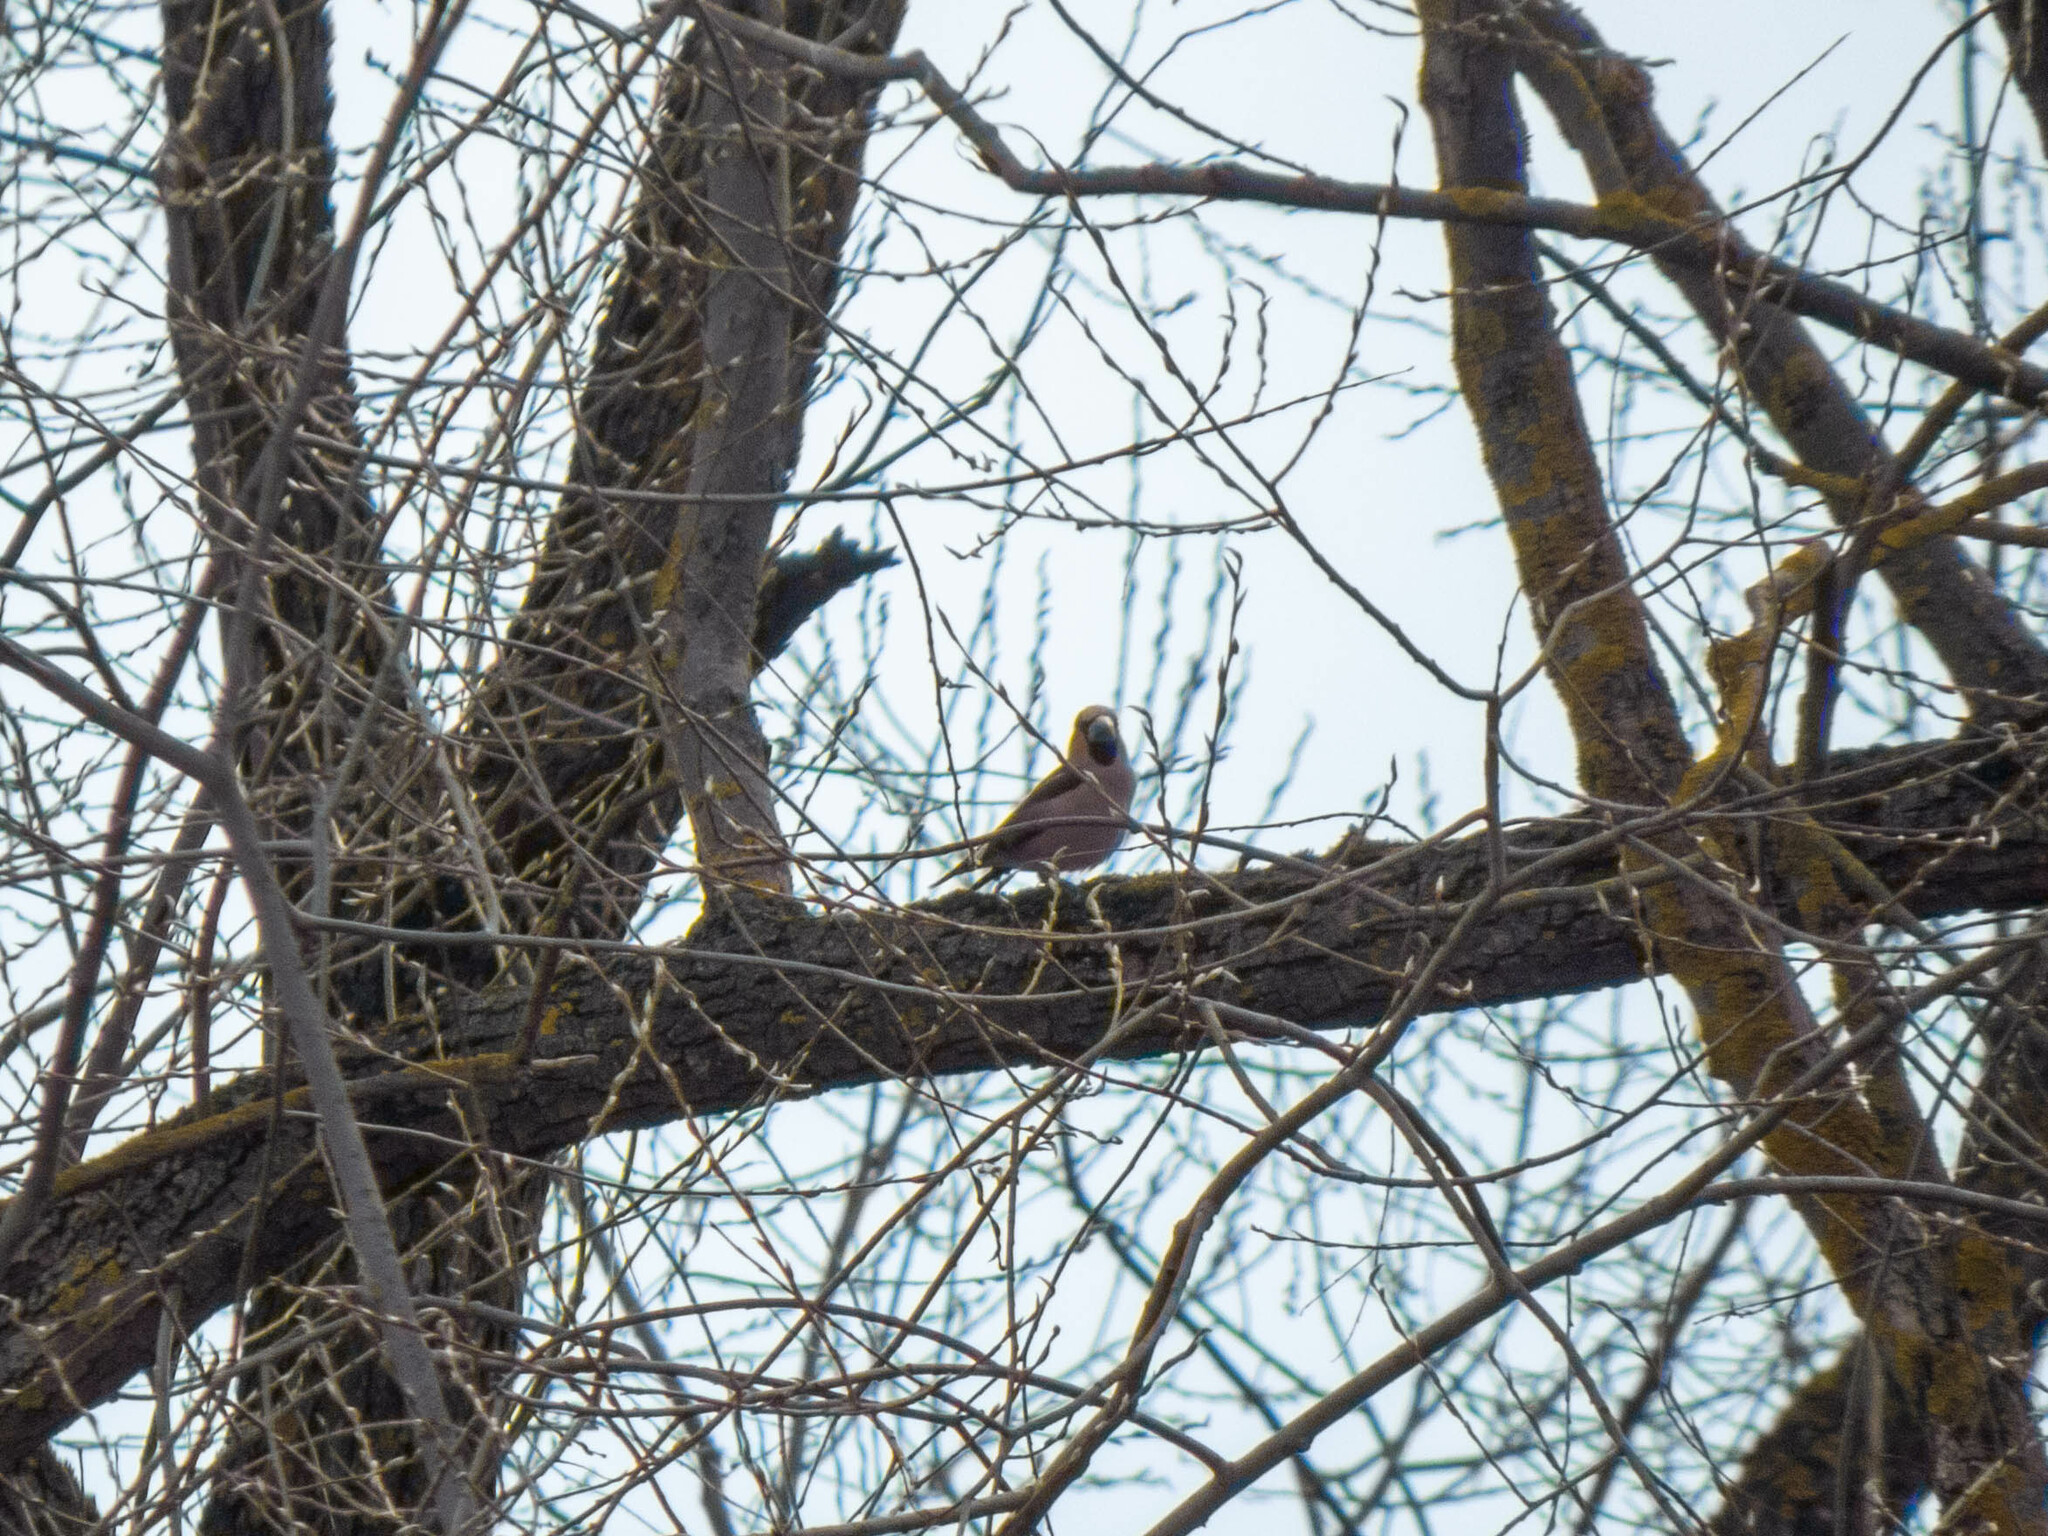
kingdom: Animalia
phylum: Chordata
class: Aves
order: Passeriformes
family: Fringillidae
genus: Coccothraustes
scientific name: Coccothraustes coccothraustes
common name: Hawfinch
